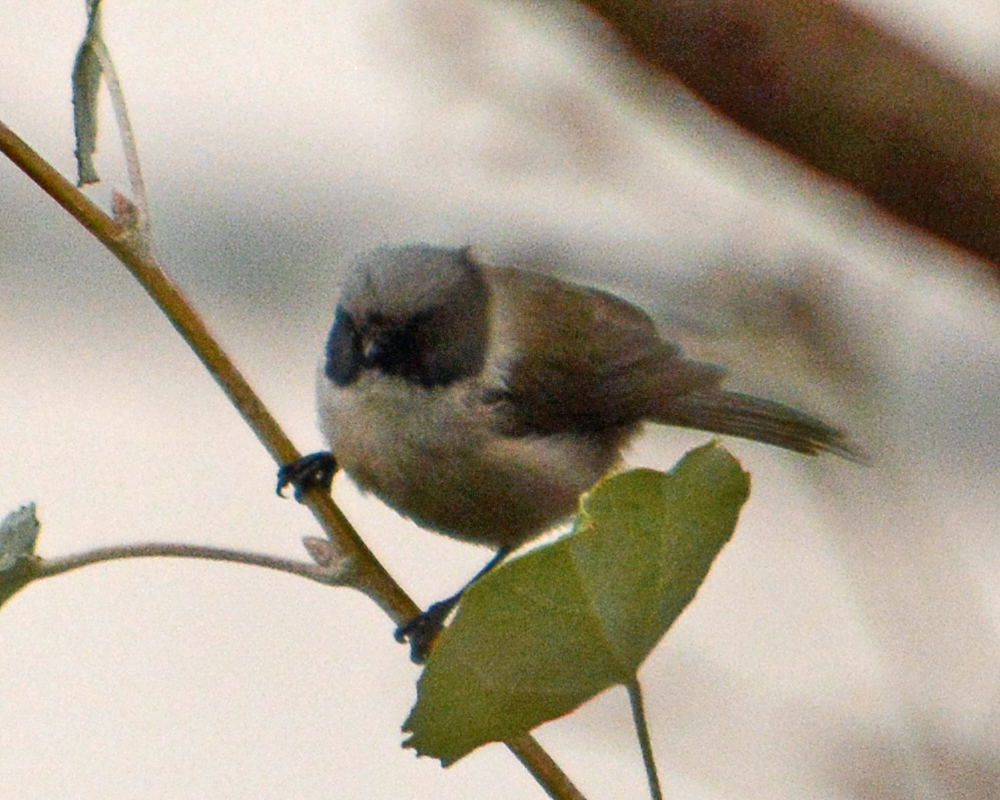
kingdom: Animalia
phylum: Chordata
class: Aves
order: Passeriformes
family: Aegithalidae
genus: Psaltriparus
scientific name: Psaltriparus minimus
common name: American bushtit
